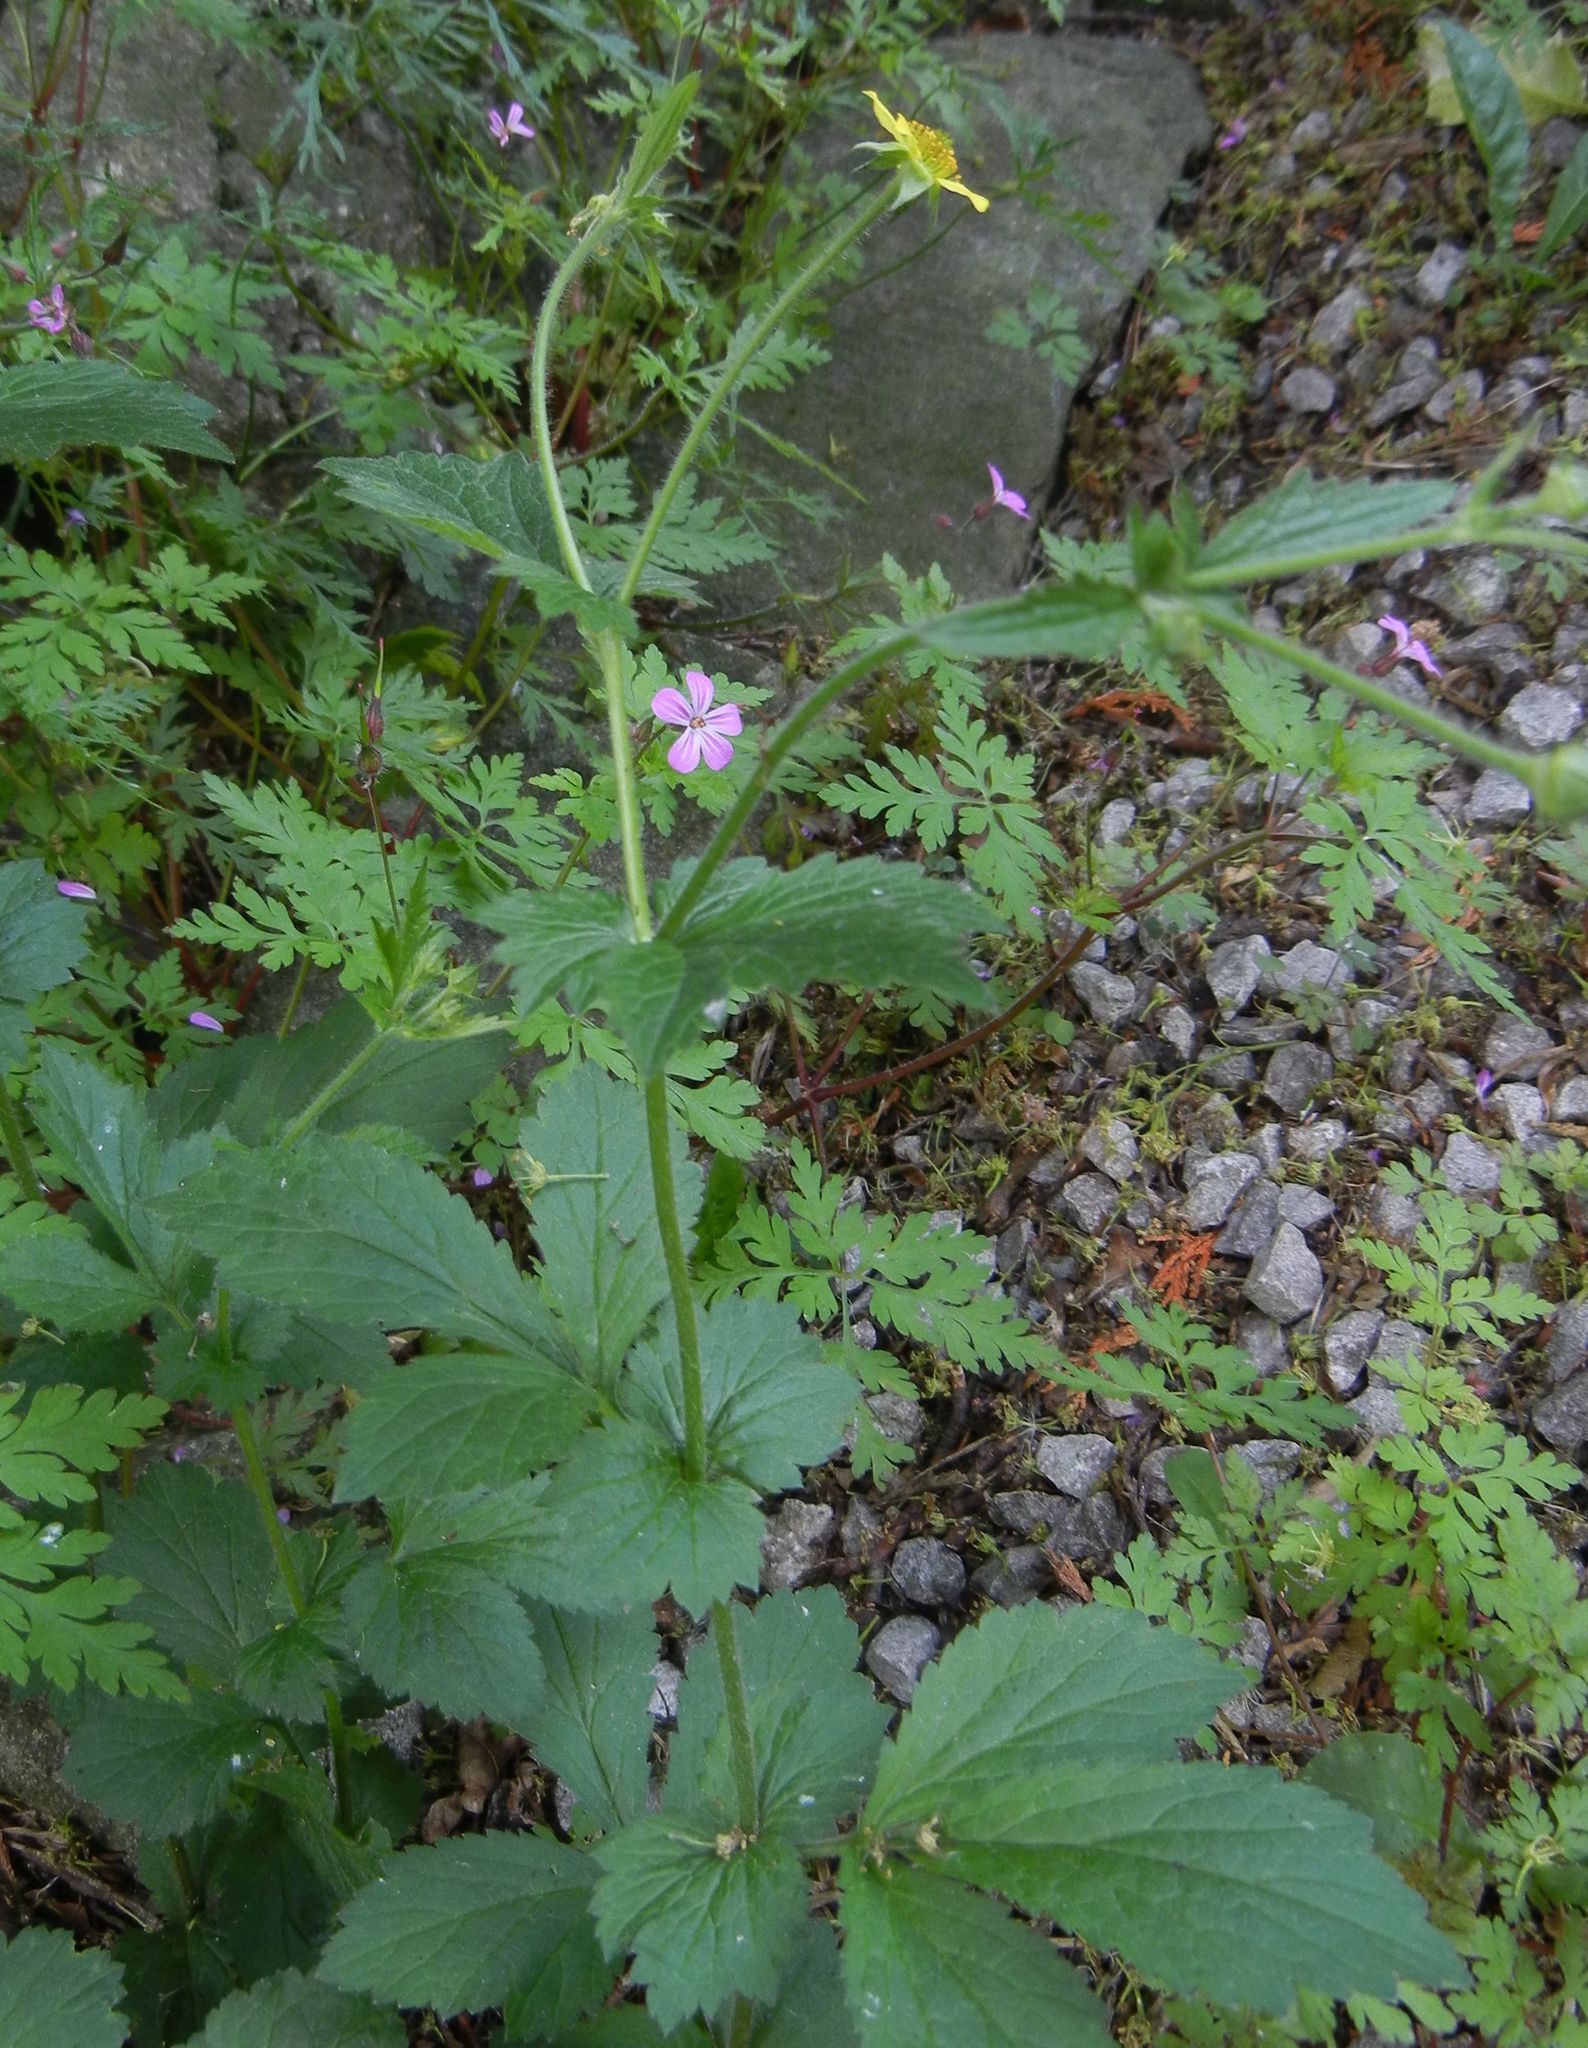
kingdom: Plantae
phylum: Tracheophyta
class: Magnoliopsida
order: Rosales
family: Rosaceae
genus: Geum
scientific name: Geum urbanum
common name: Wood avens
